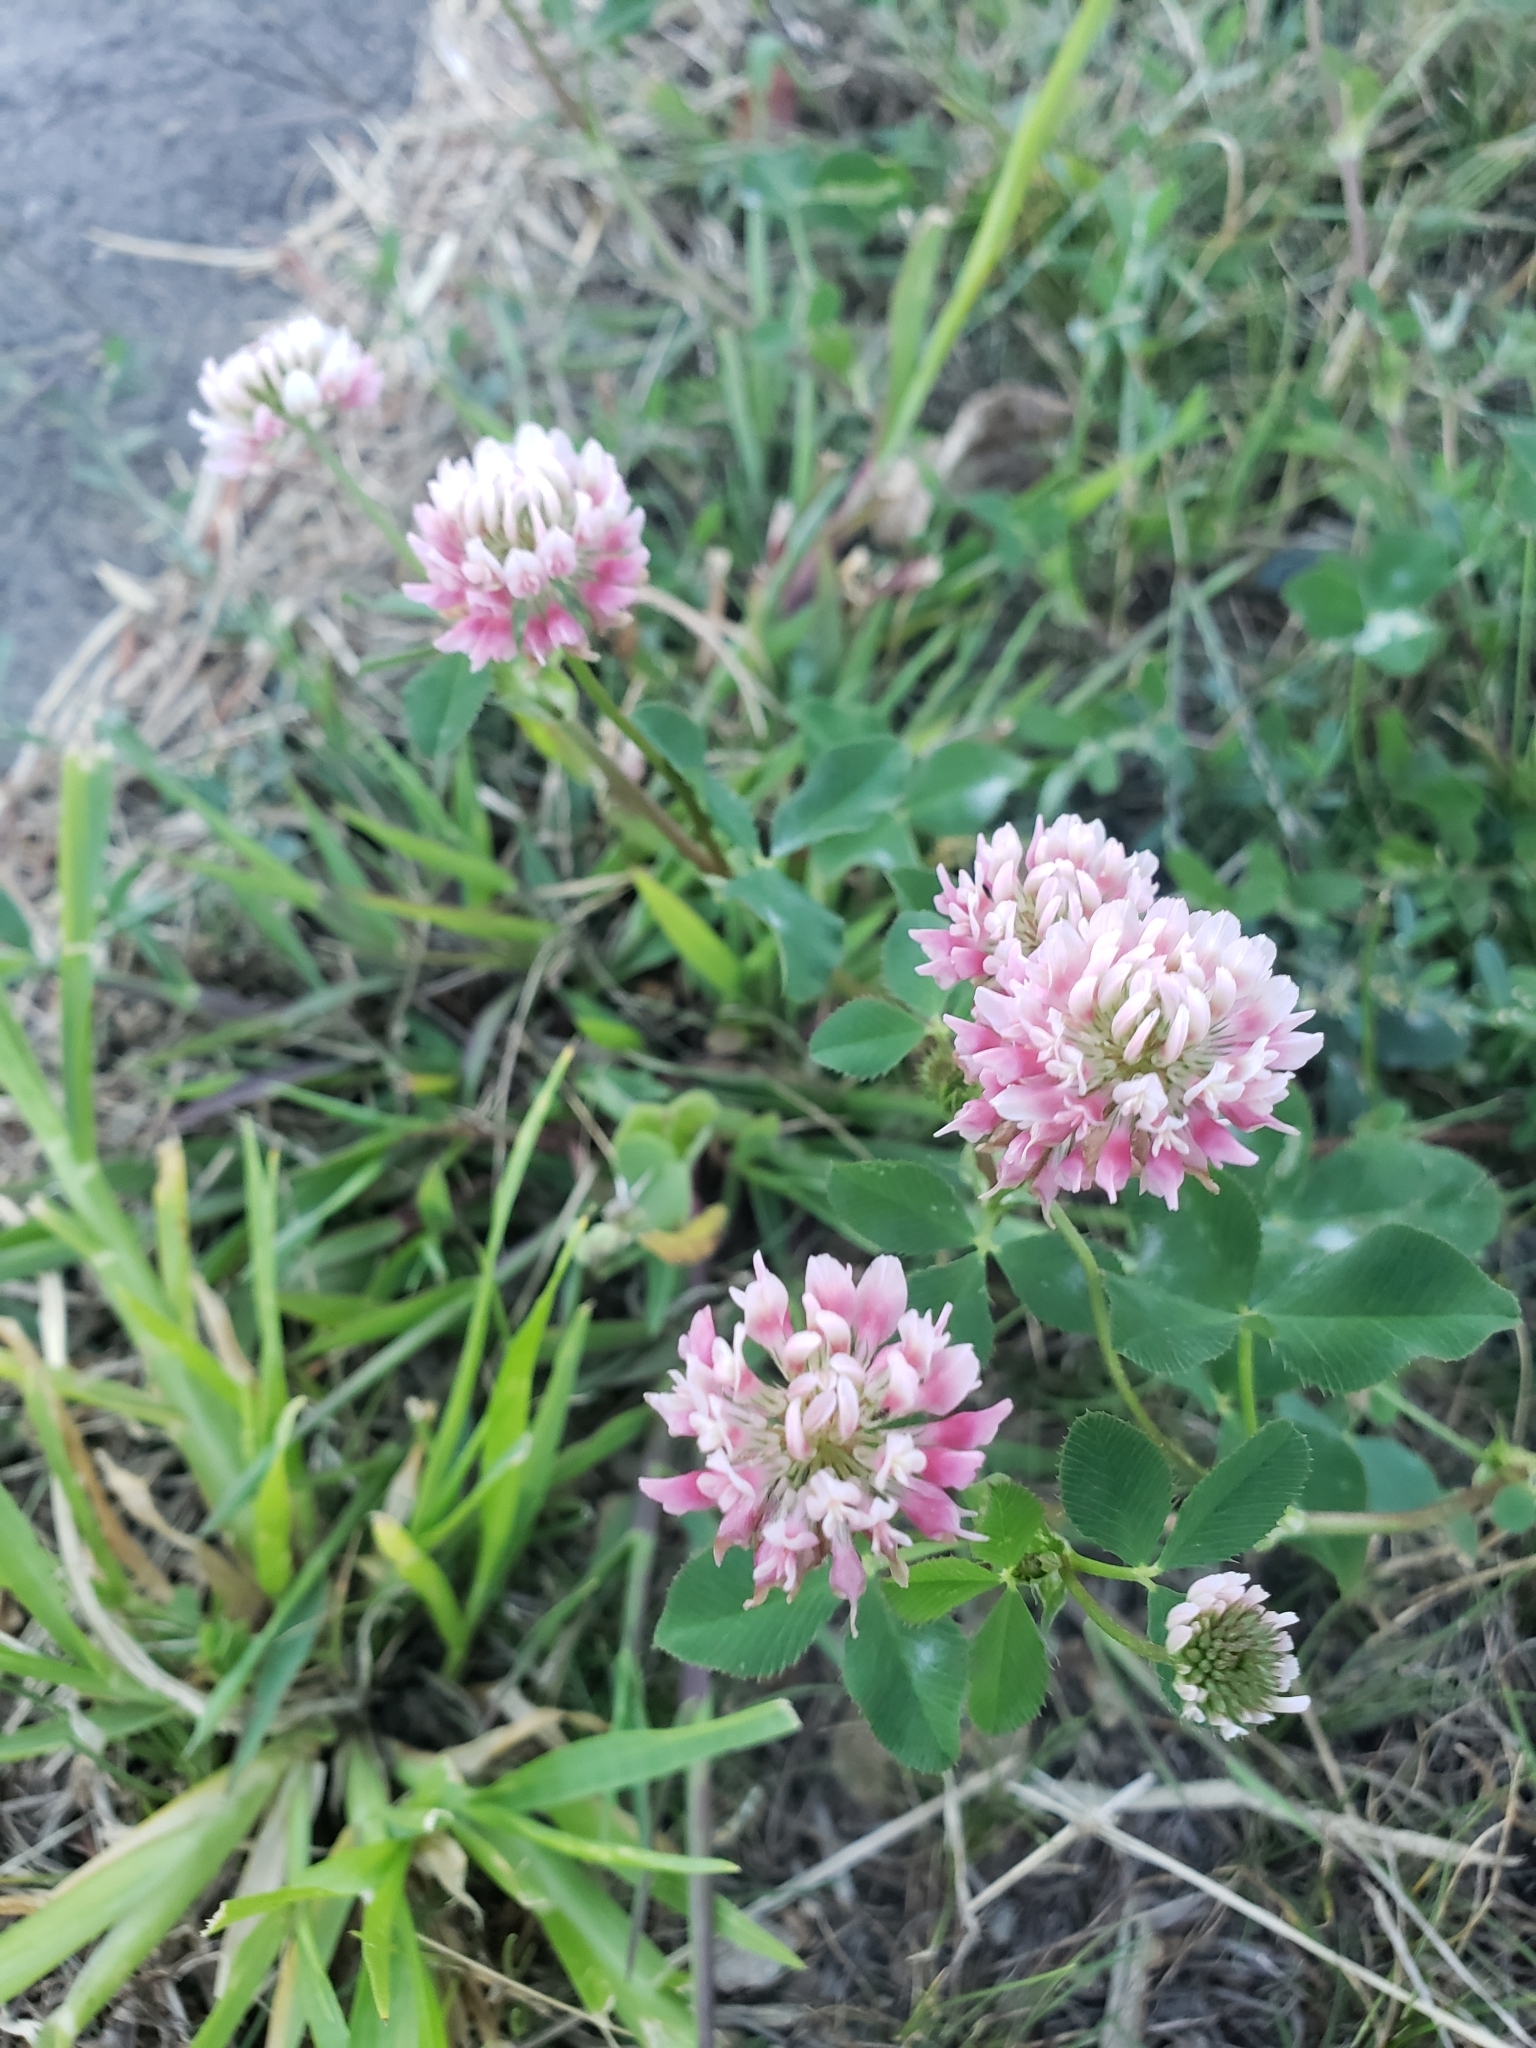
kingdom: Plantae
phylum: Tracheophyta
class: Magnoliopsida
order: Fabales
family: Fabaceae
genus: Trifolium
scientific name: Trifolium hybridum
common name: Alsike clover
